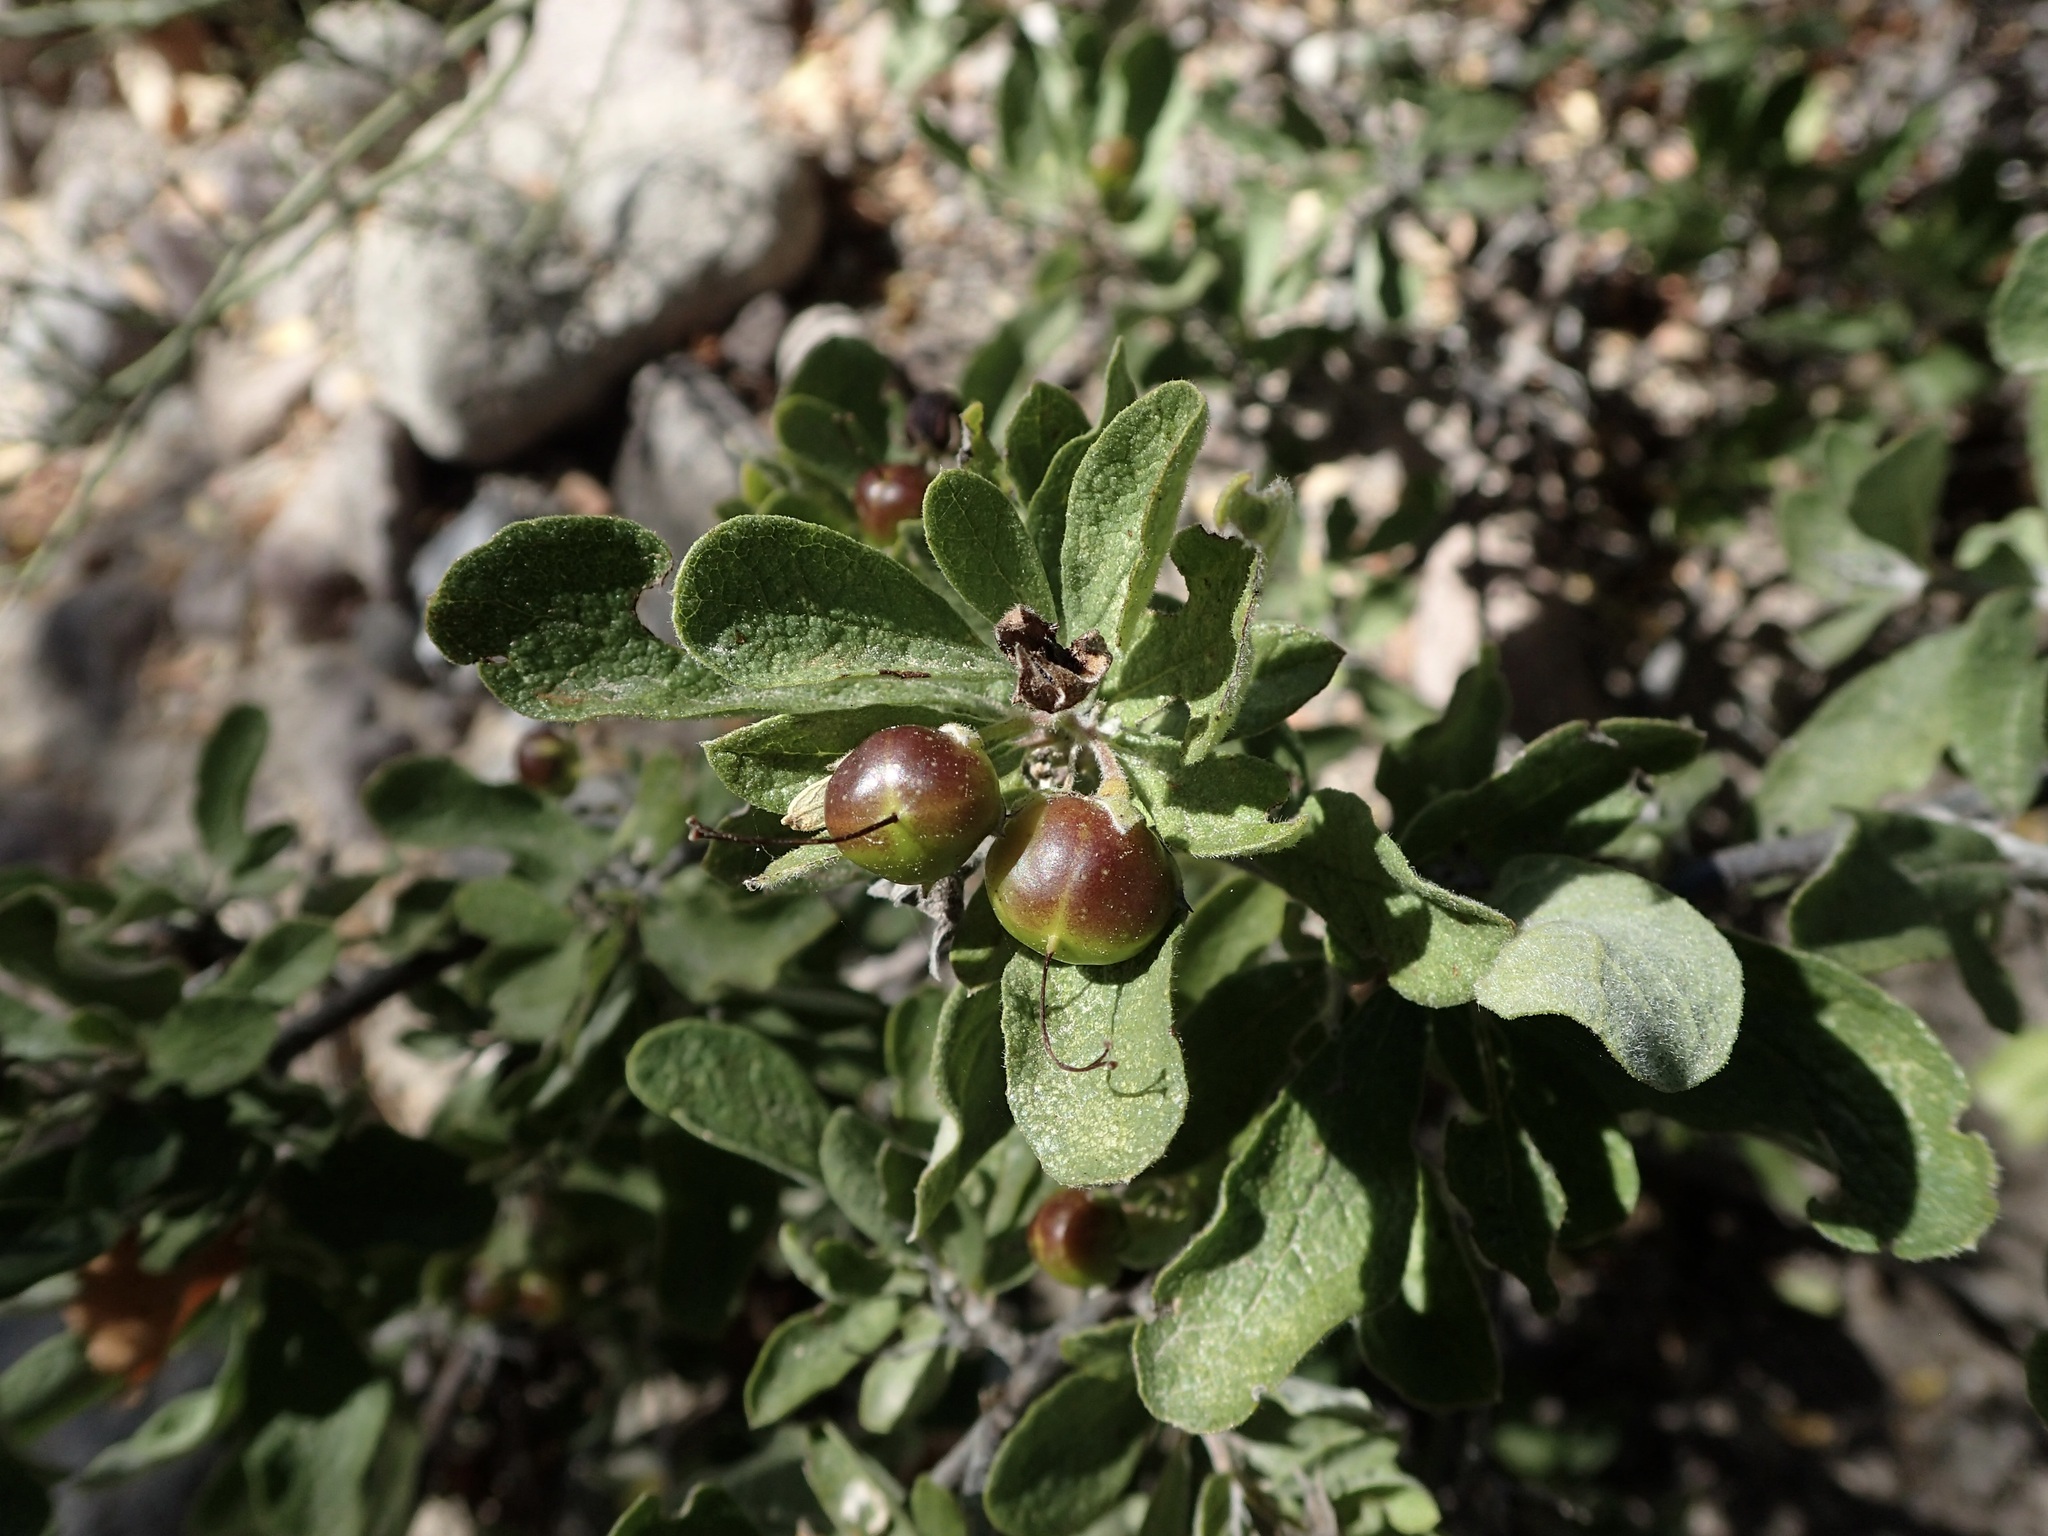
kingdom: Plantae
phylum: Tracheophyta
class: Magnoliopsida
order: Boraginales
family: Ehretiaceae
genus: Bourreria
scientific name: Bourreria sonorae
